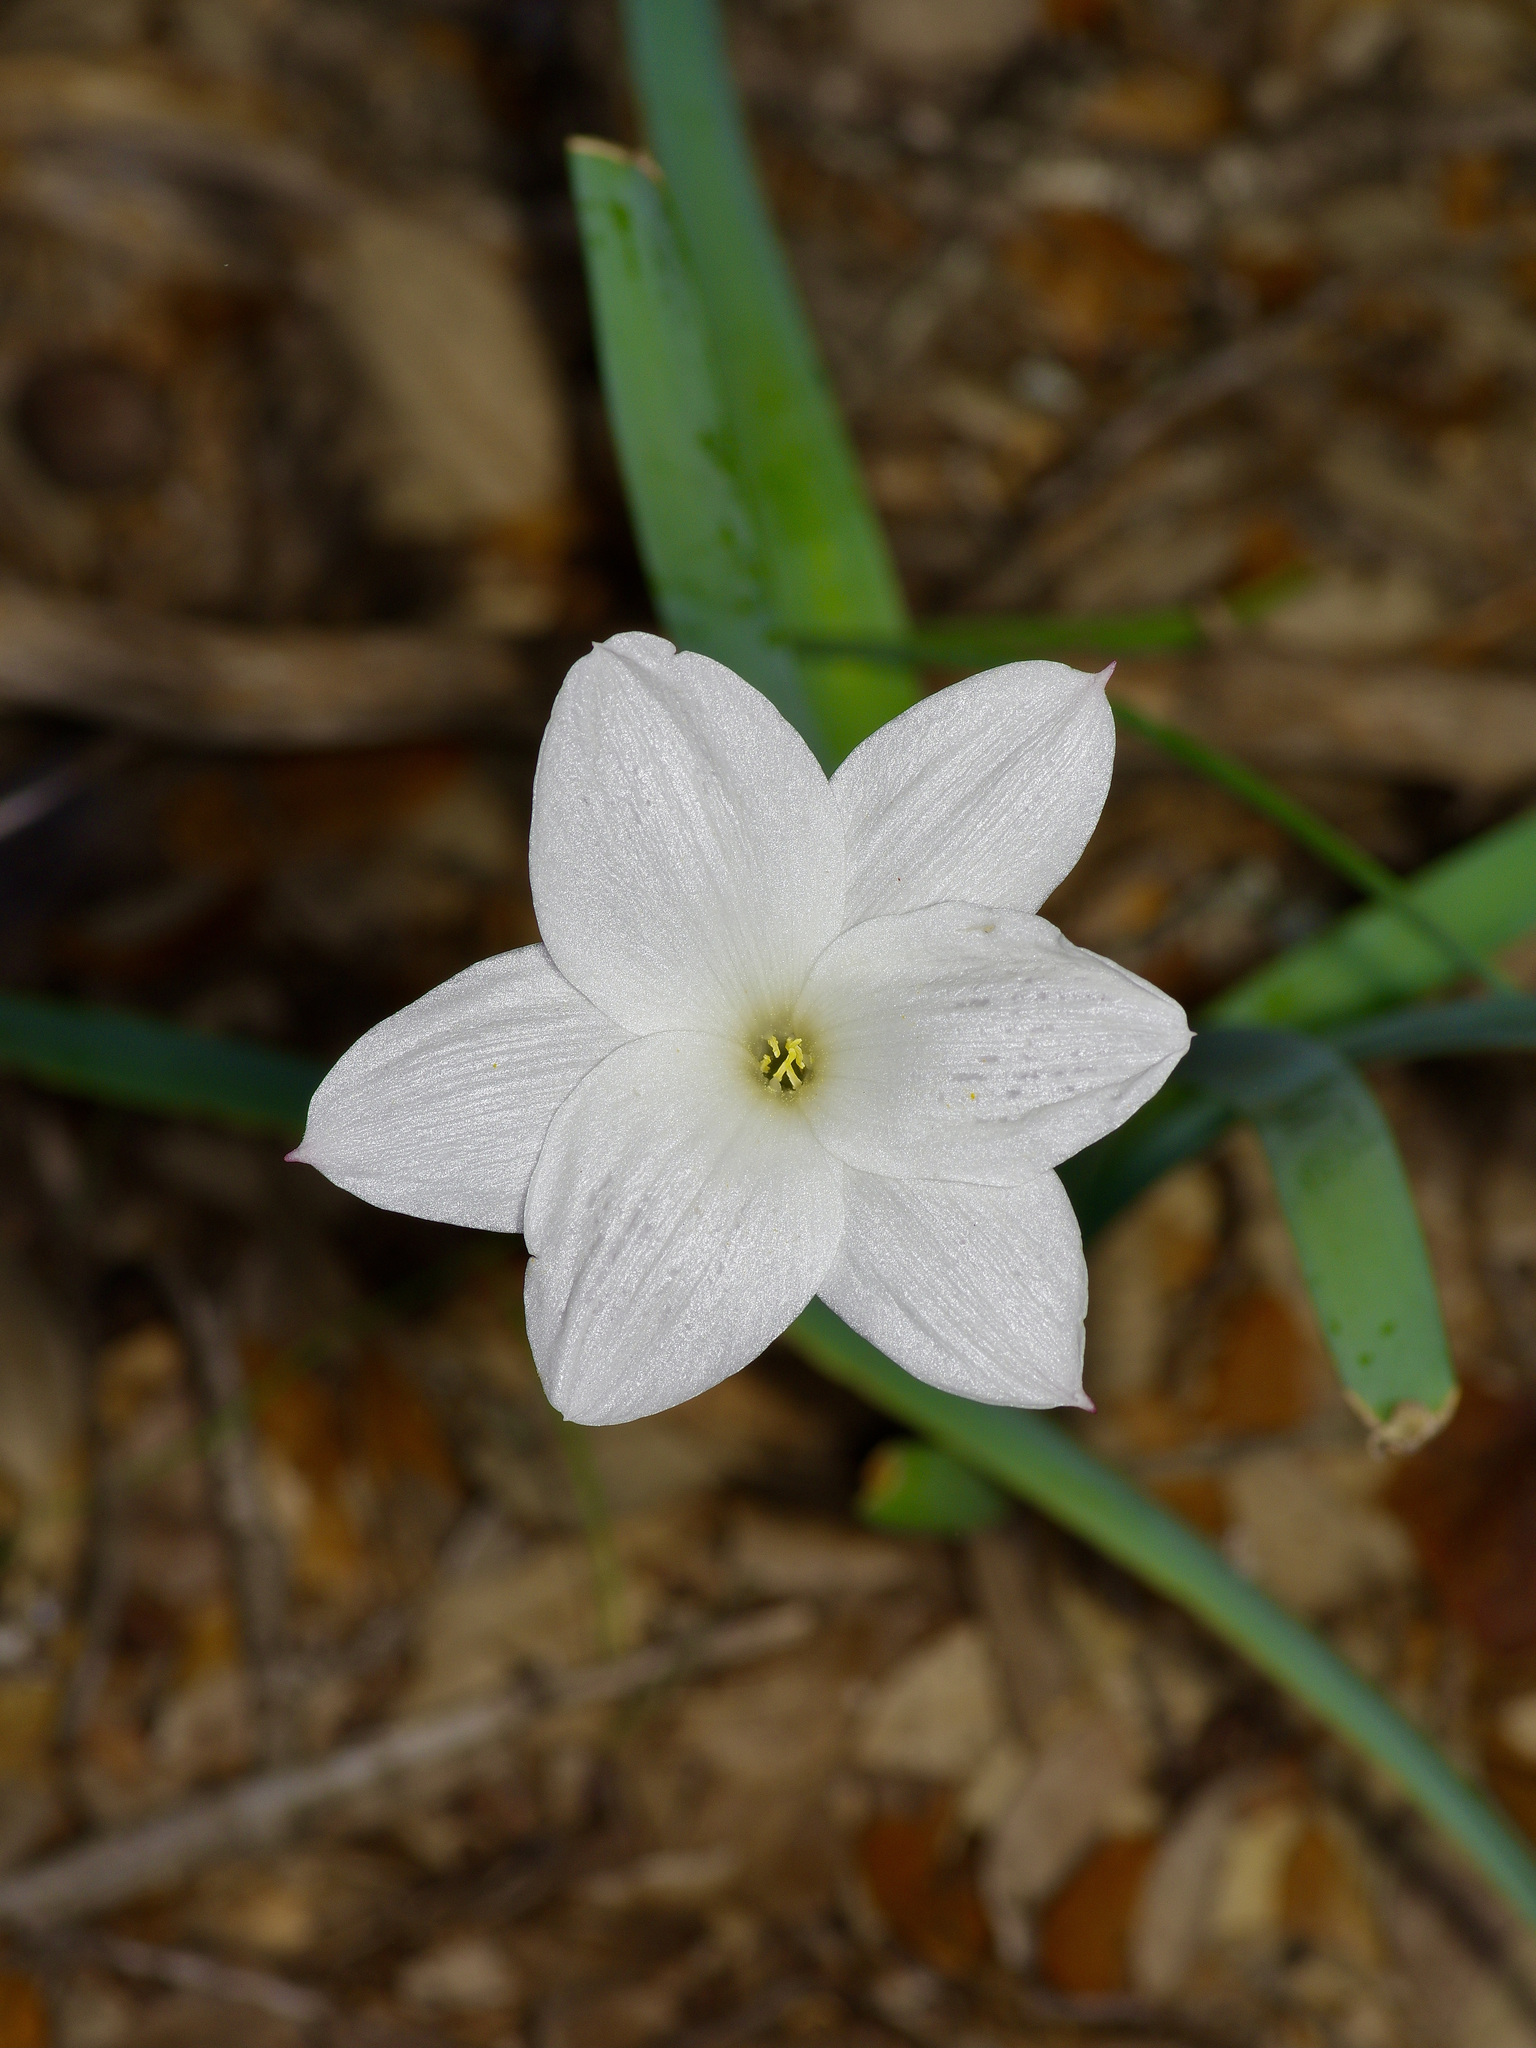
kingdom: Plantae
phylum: Tracheophyta
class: Liliopsida
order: Asparagales
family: Amaryllidaceae
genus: Zephyranthes
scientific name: Zephyranthes drummondii
